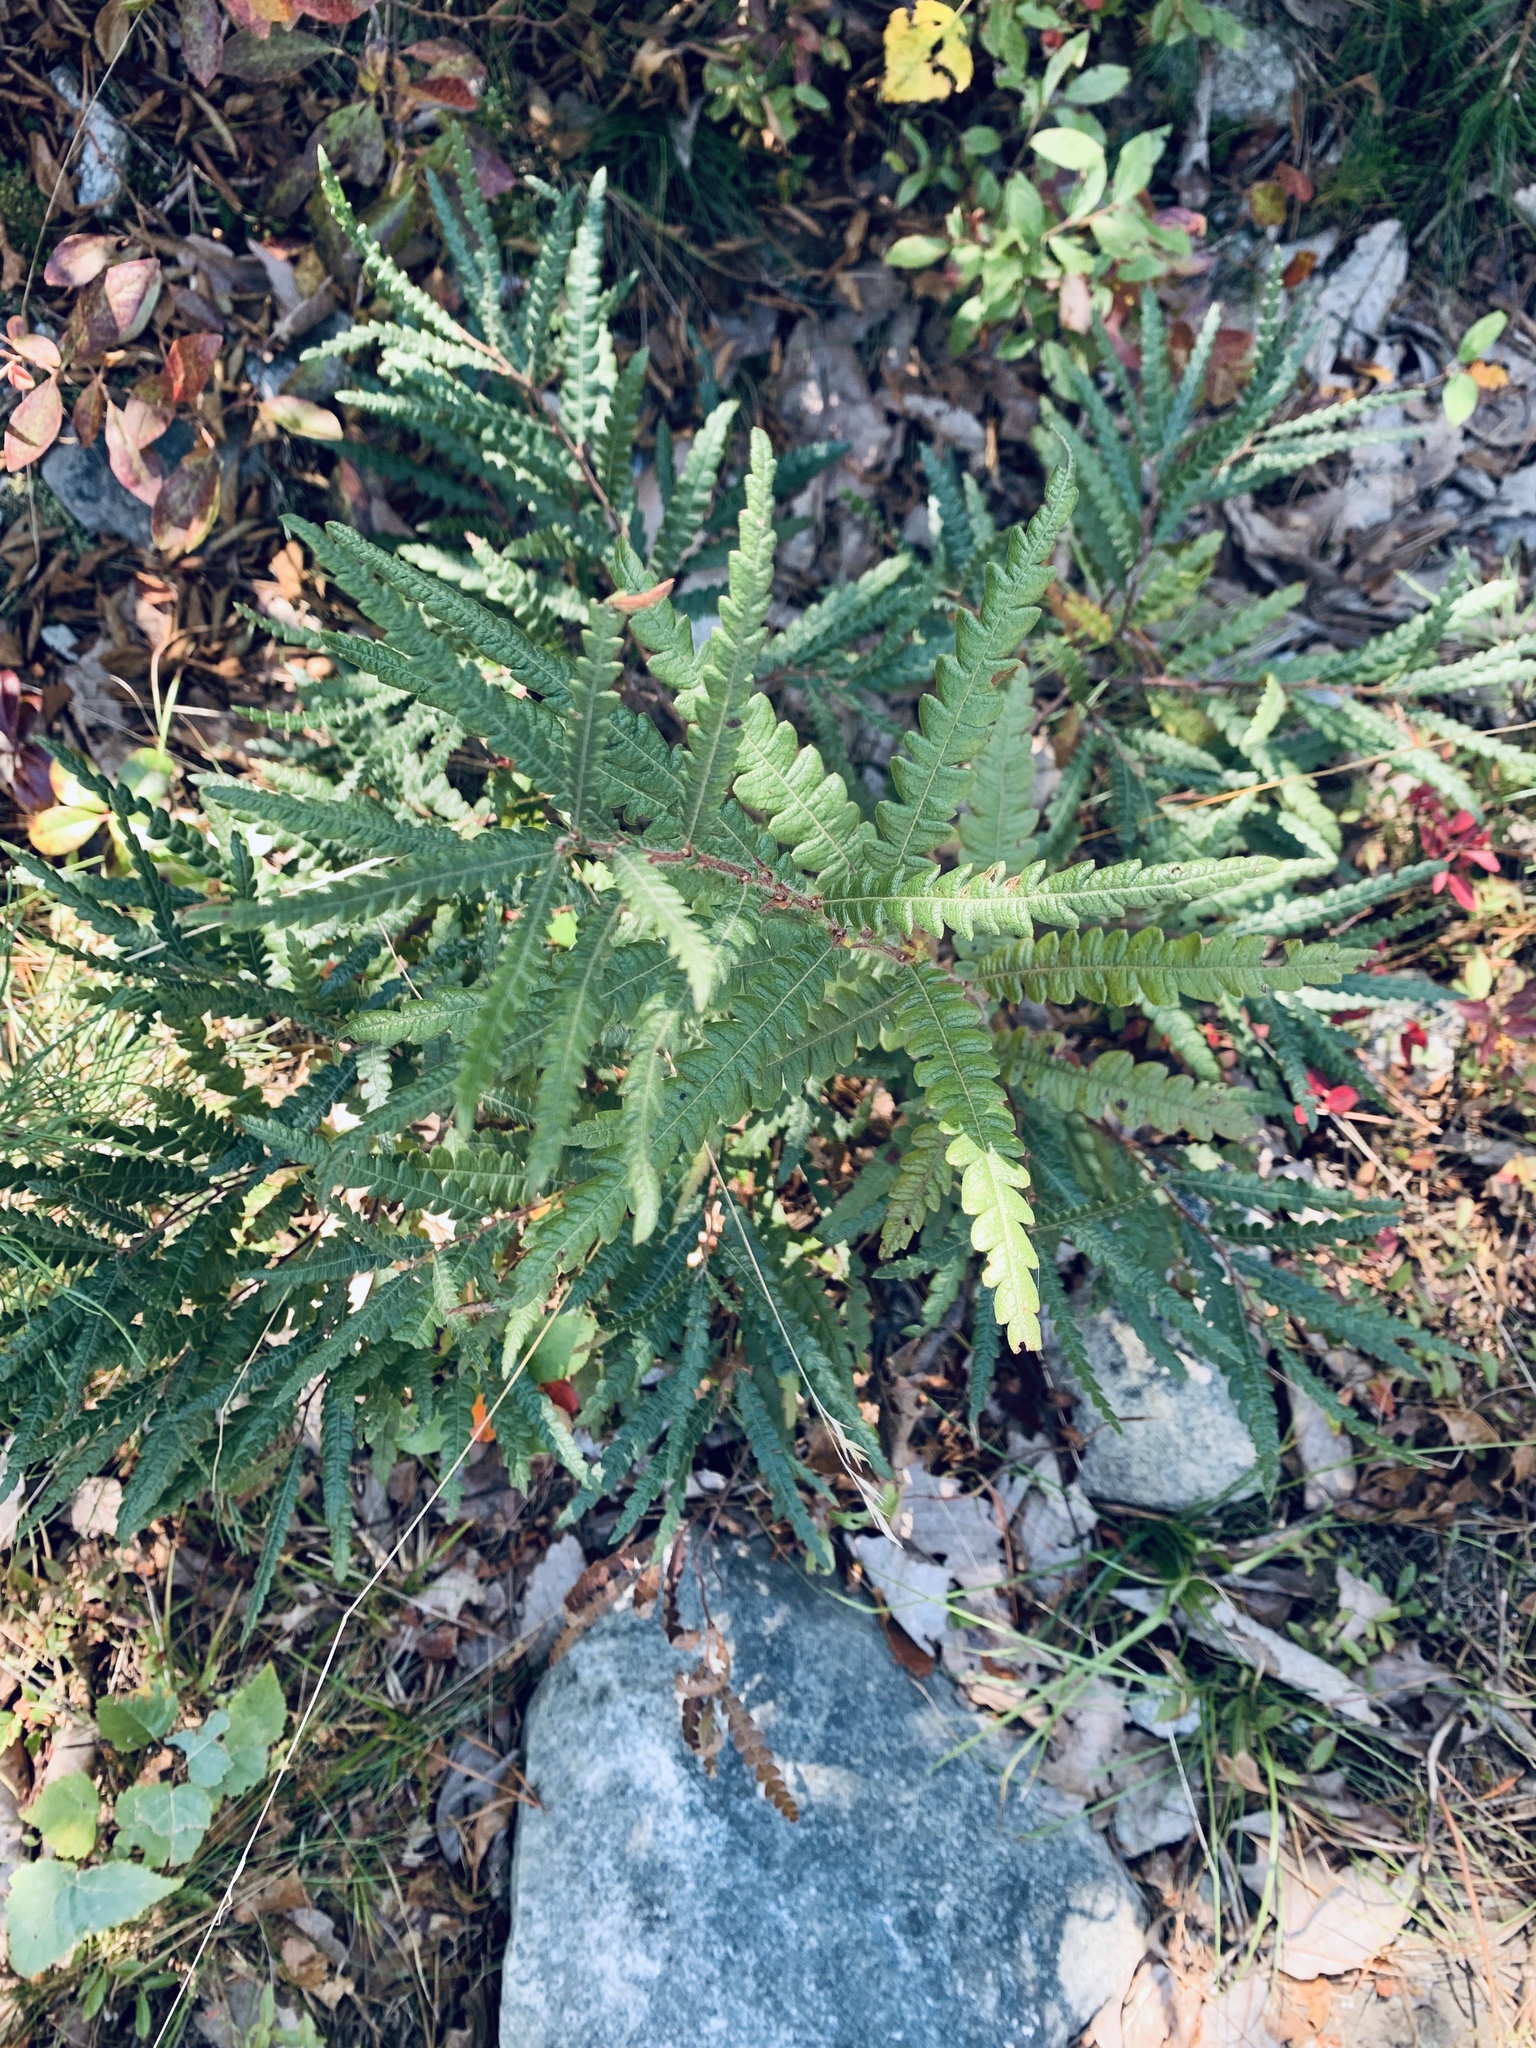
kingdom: Plantae
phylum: Tracheophyta
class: Magnoliopsida
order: Fagales
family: Myricaceae
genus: Comptonia
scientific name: Comptonia peregrina
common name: Sweet-fern
